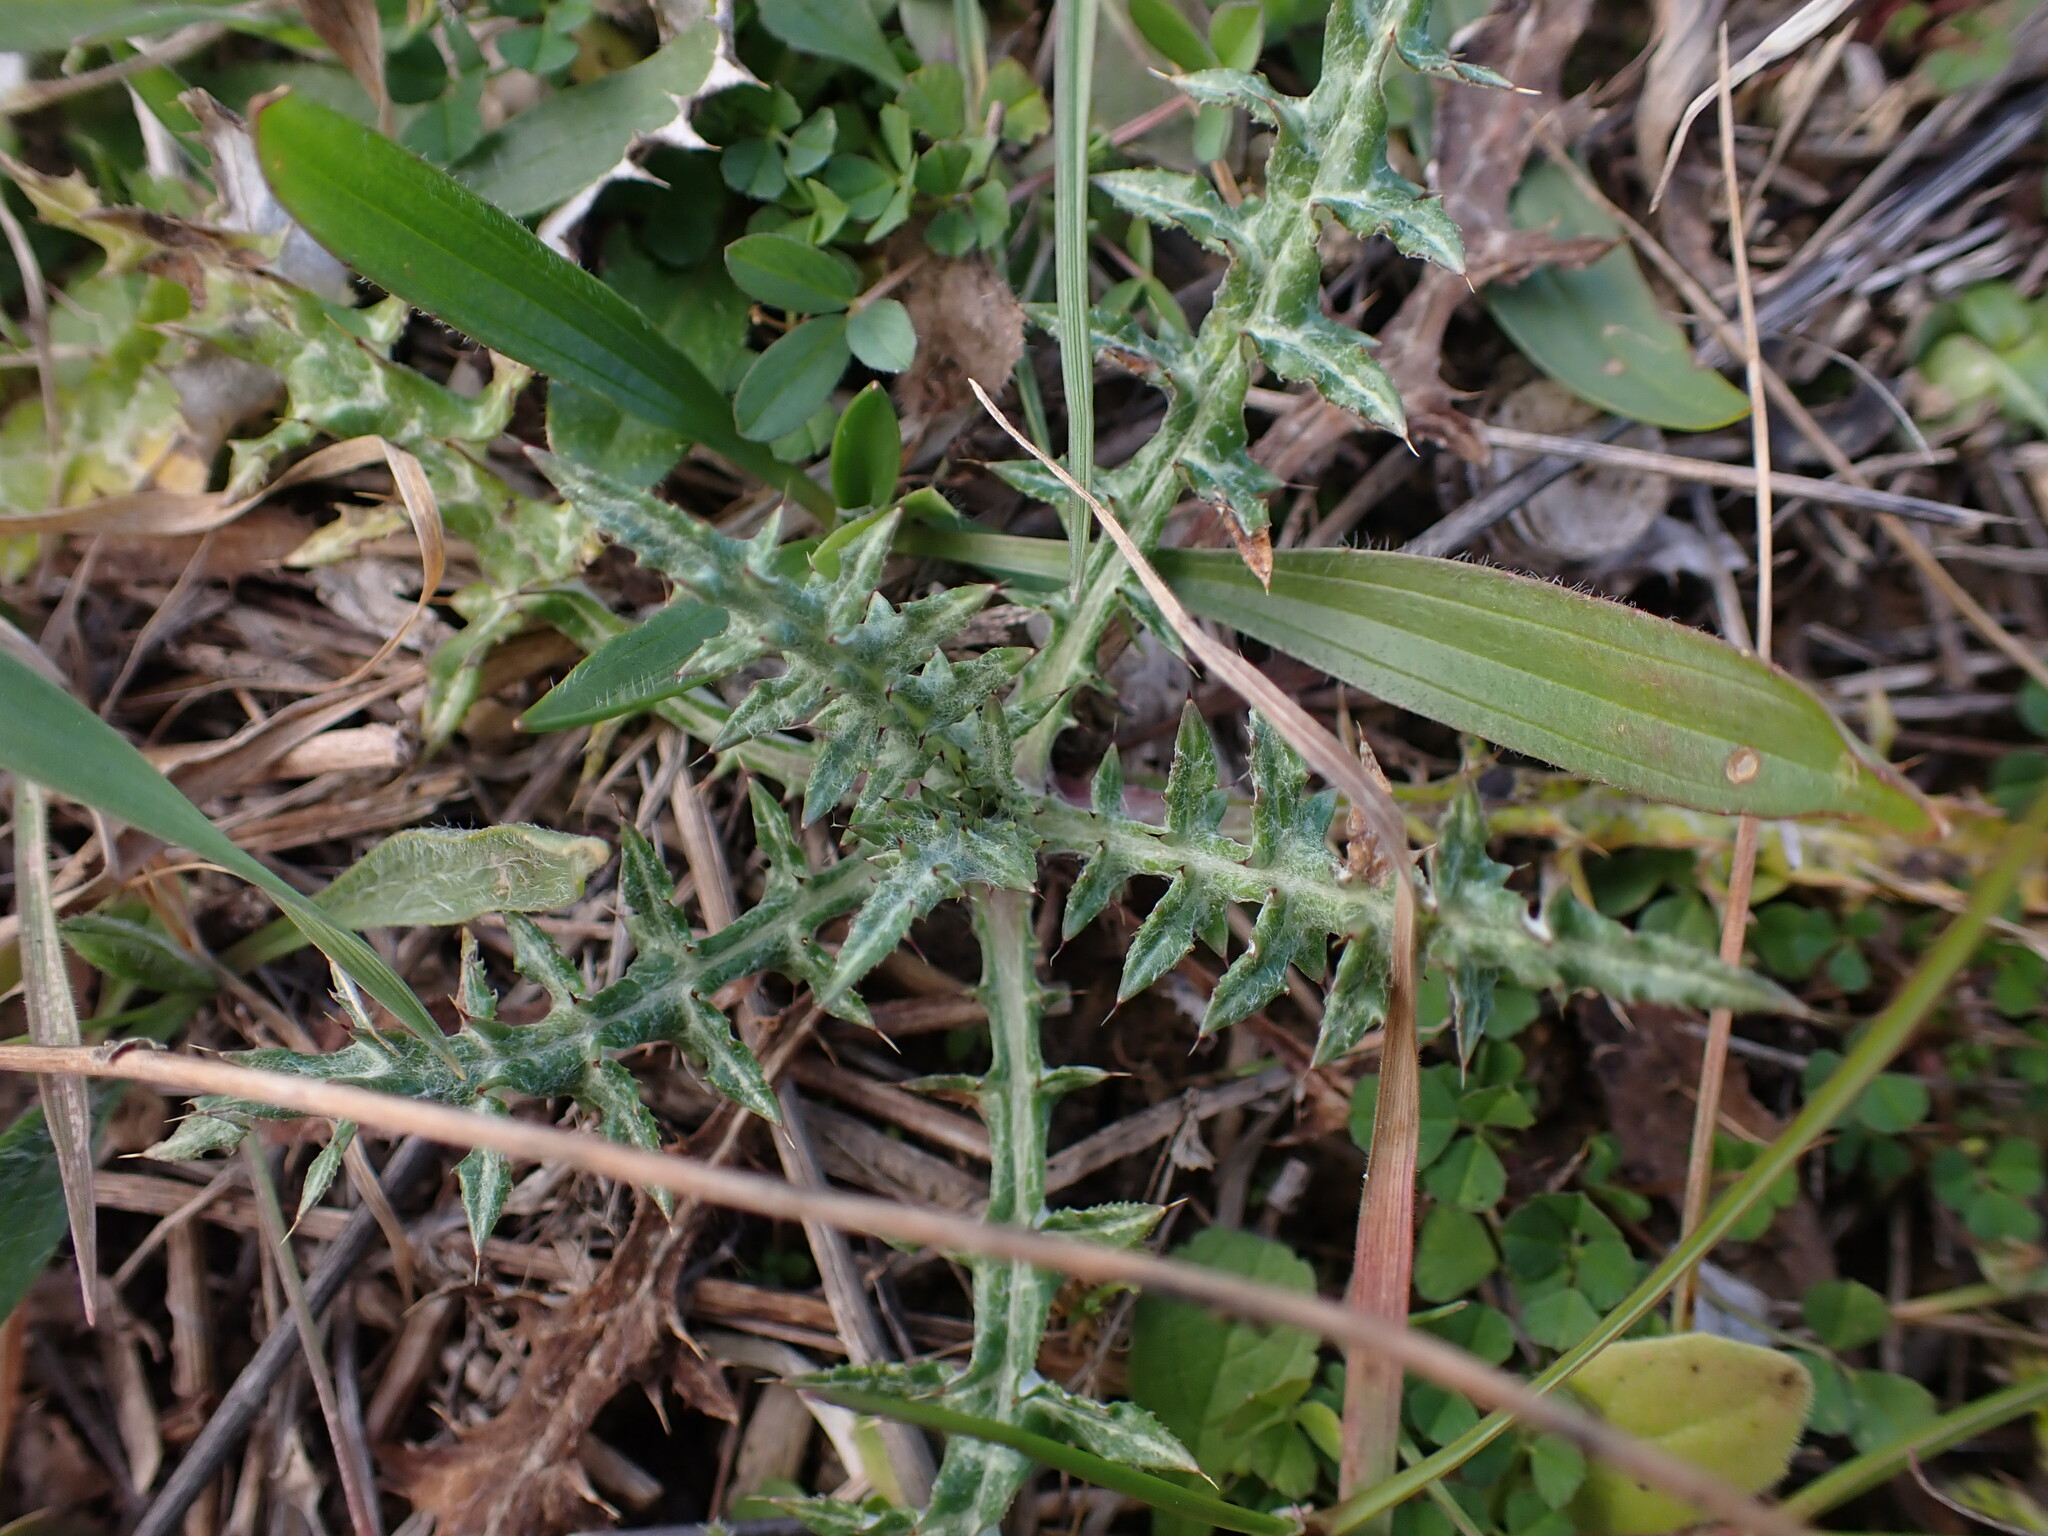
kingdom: Plantae
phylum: Tracheophyta
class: Magnoliopsida
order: Asterales
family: Asteraceae
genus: Galactites
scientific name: Galactites tomentosa
